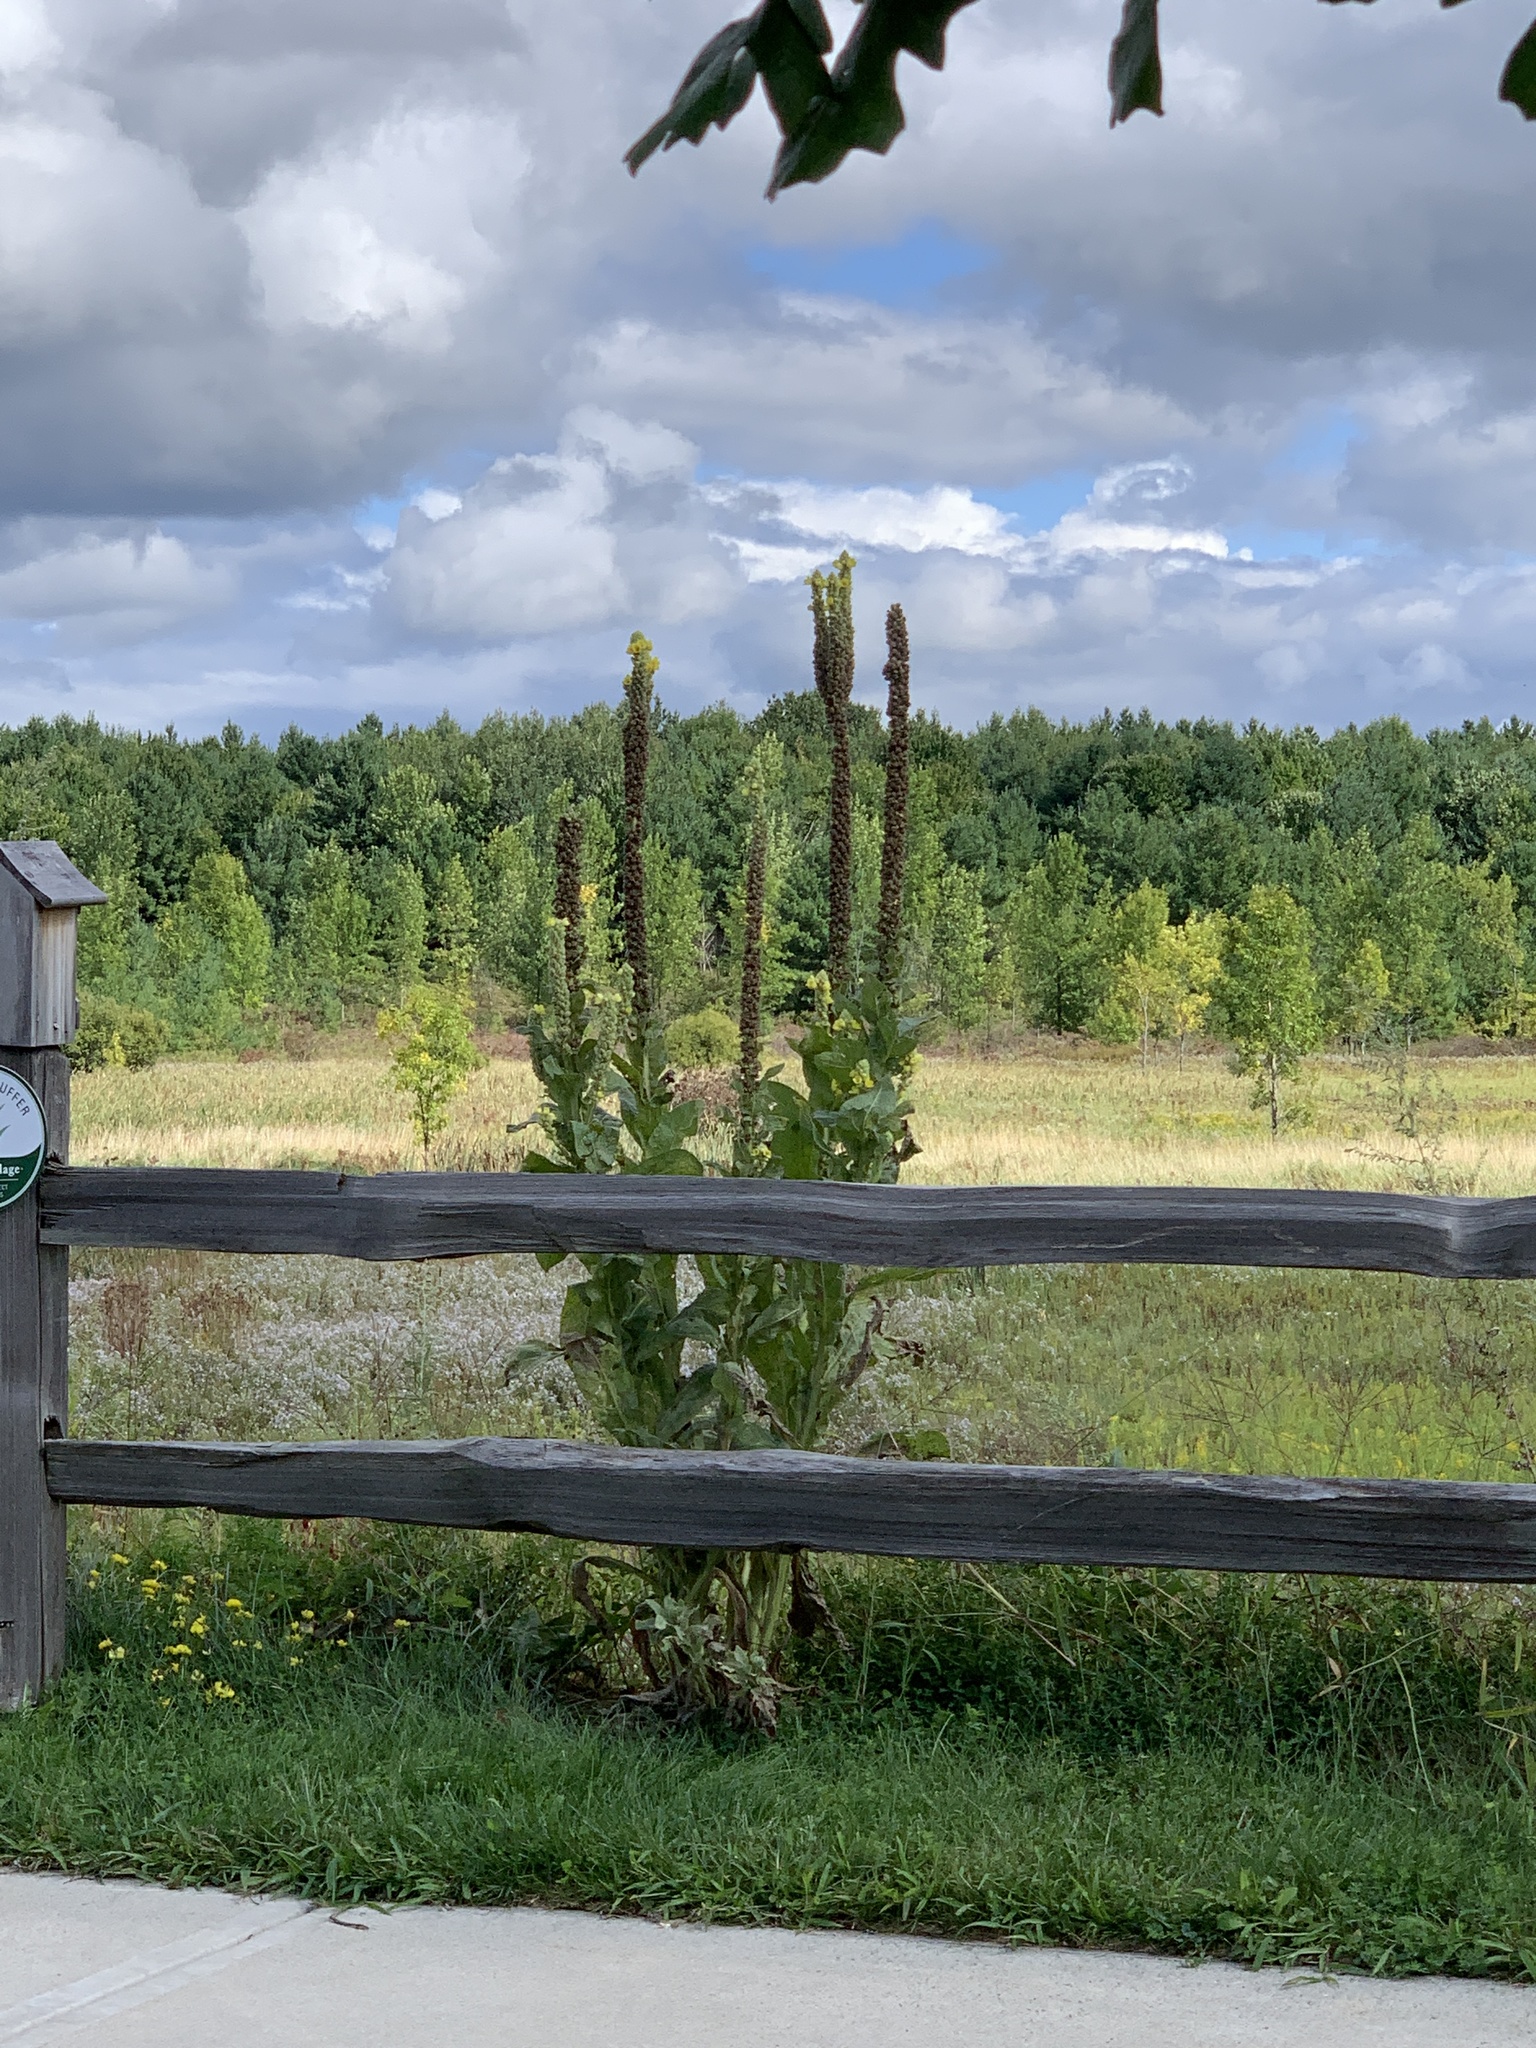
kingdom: Plantae
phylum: Tracheophyta
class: Magnoliopsida
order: Lamiales
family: Scrophulariaceae
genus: Verbascum
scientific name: Verbascum thapsus
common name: Common mullein
